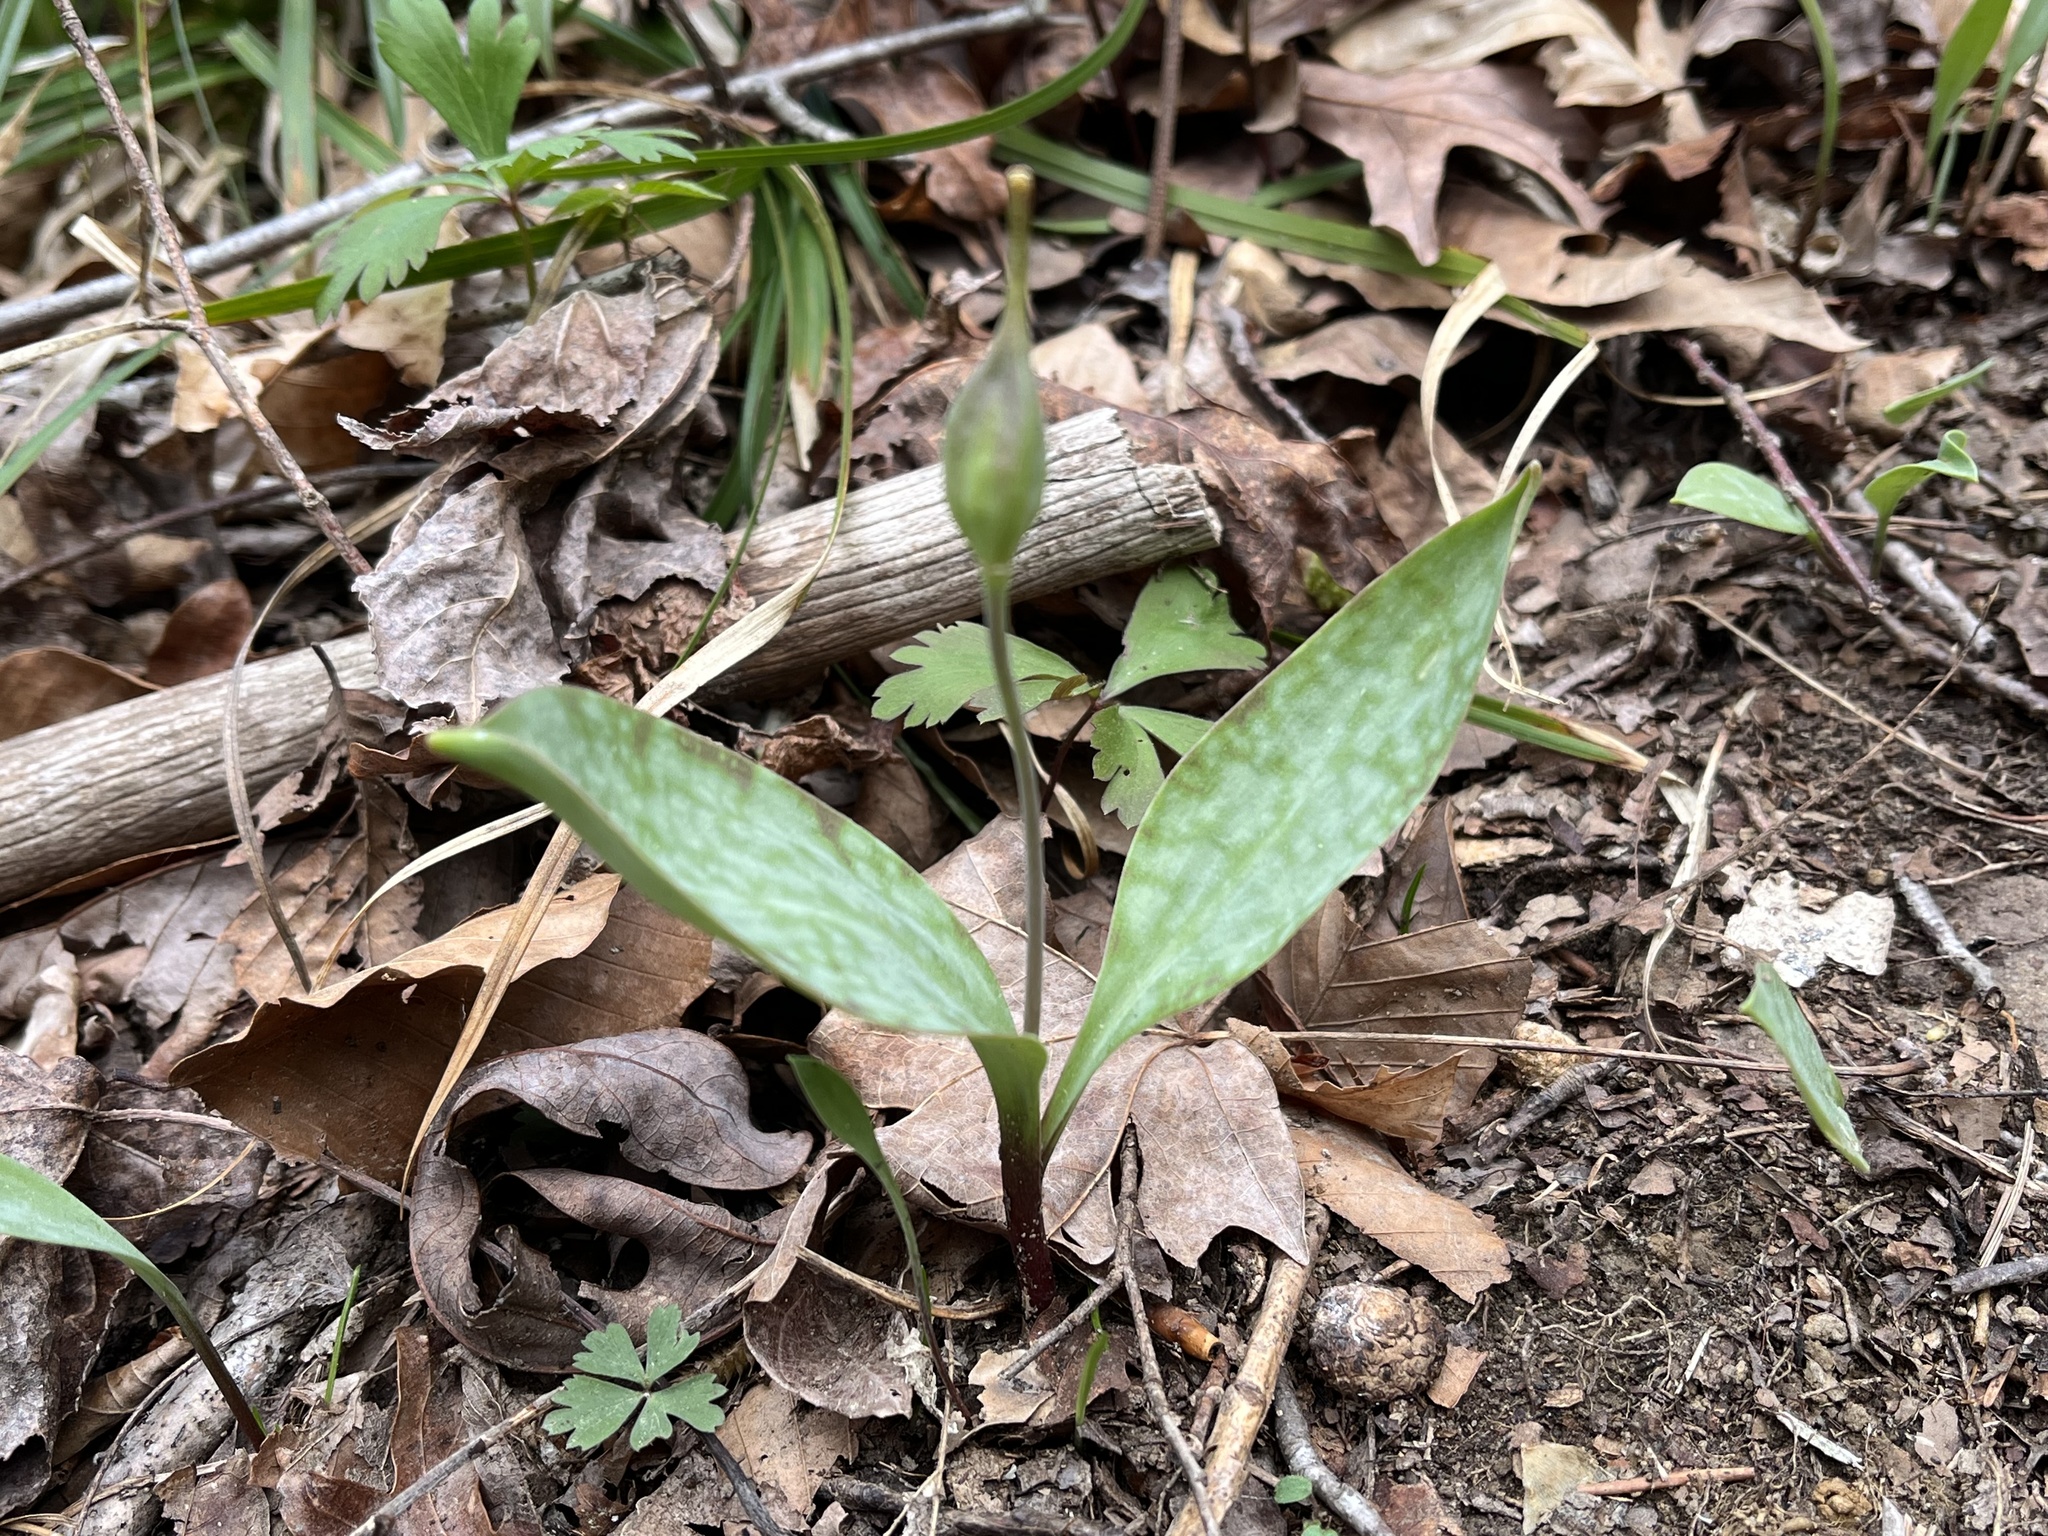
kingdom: Plantae
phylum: Tracheophyta
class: Liliopsida
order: Liliales
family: Liliaceae
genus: Erythronium
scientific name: Erythronium rostratum
